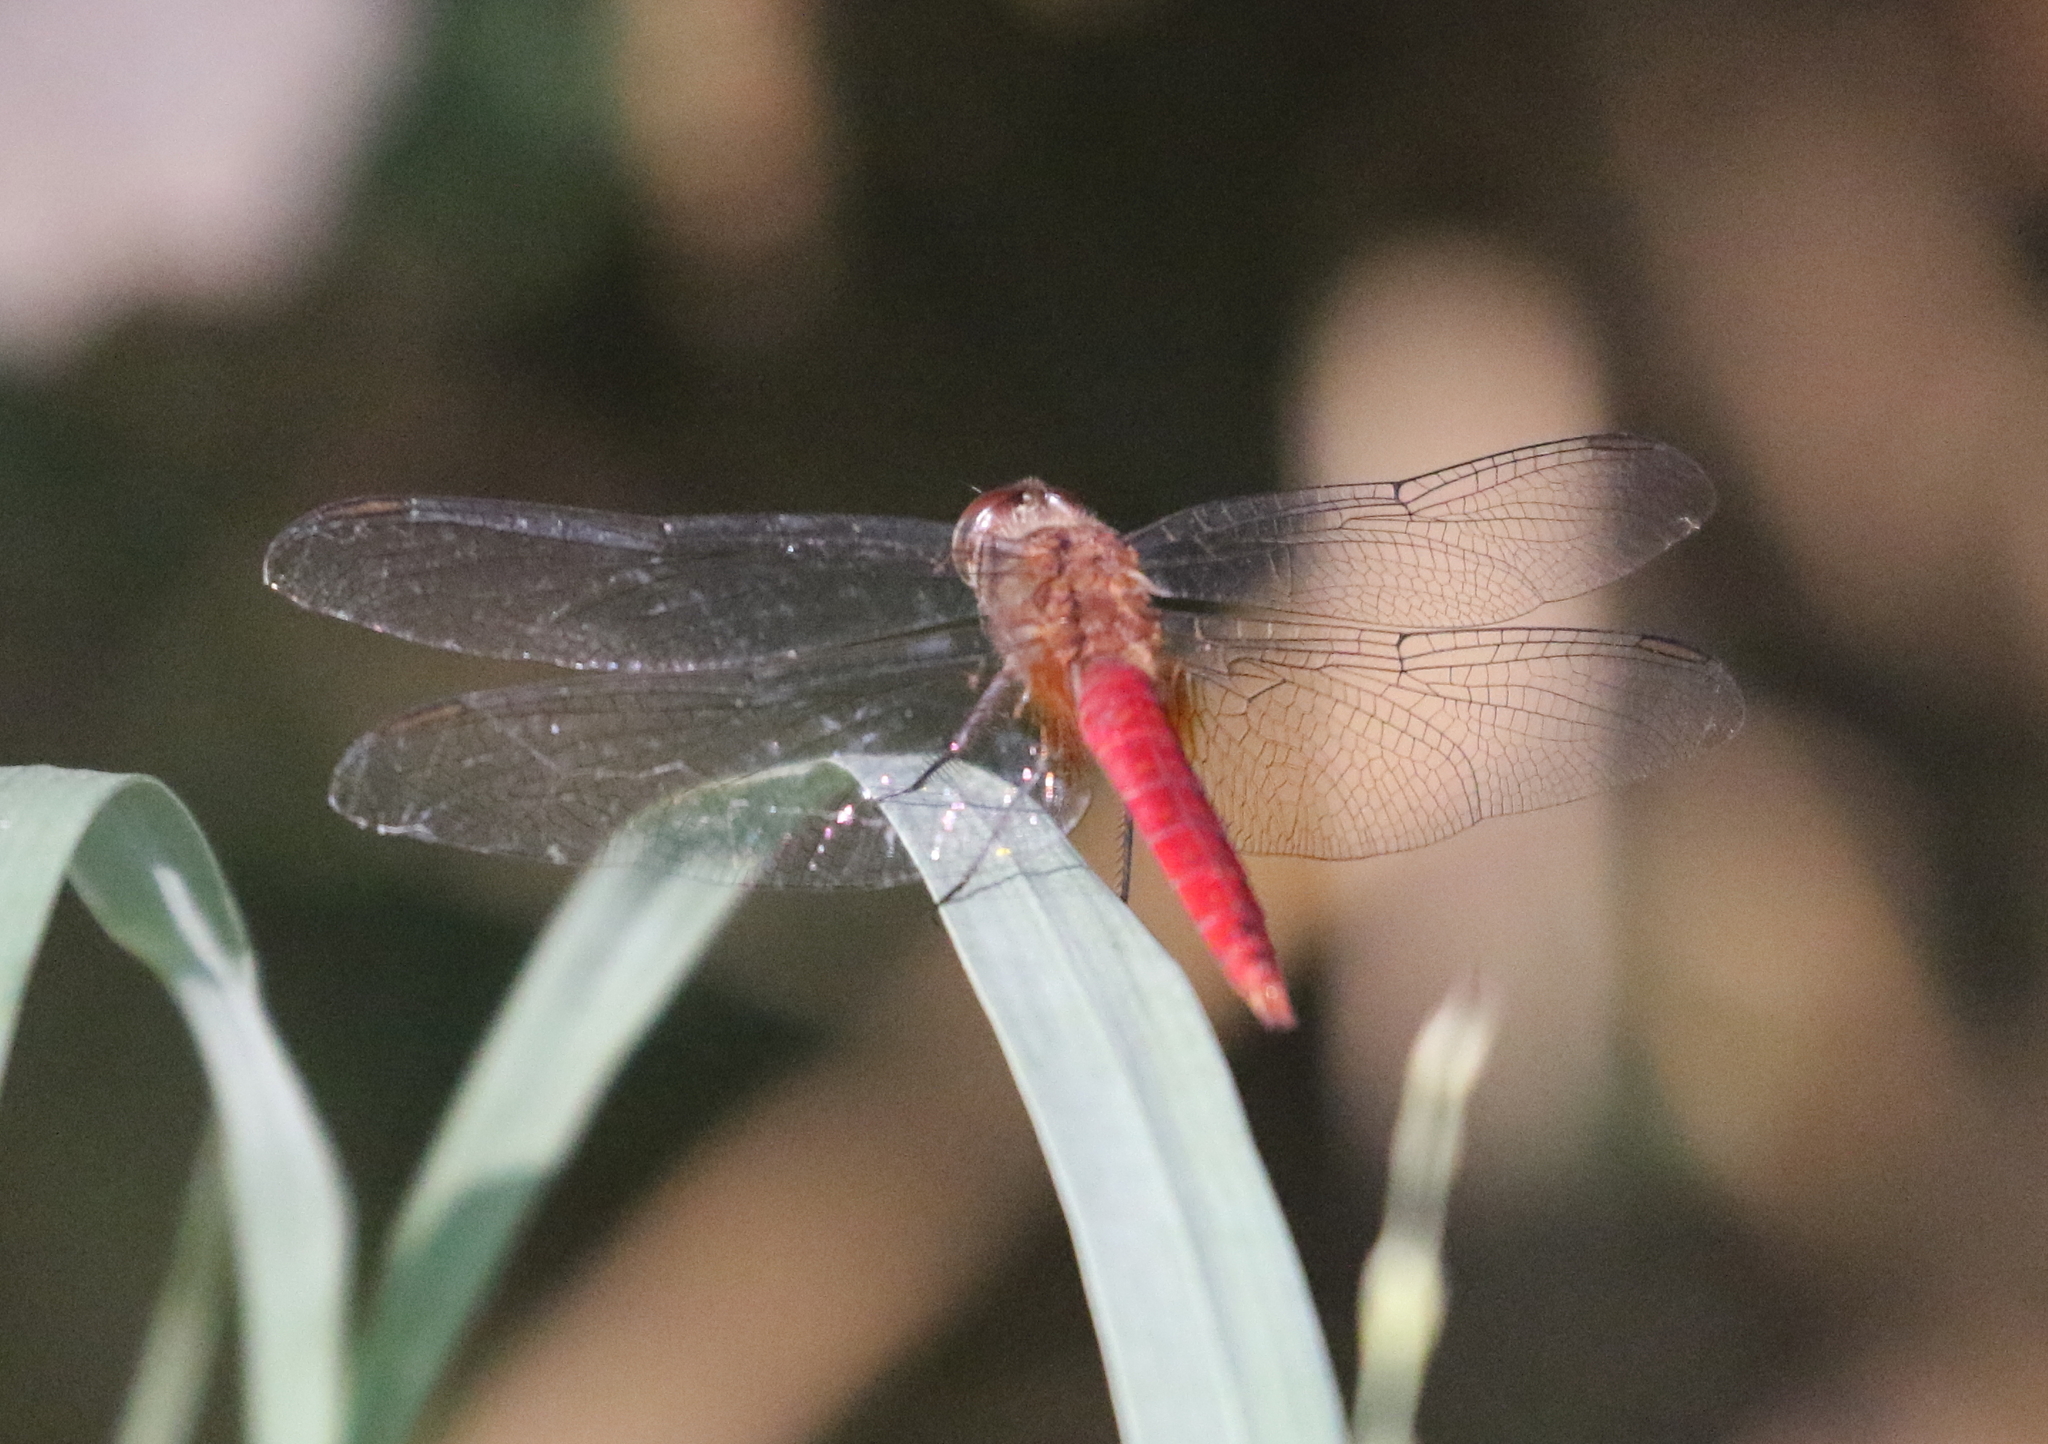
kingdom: Animalia
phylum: Arthropoda
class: Insecta
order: Odonata
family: Libellulidae
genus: Brachymesia
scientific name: Brachymesia furcata
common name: Red-taled pennant
